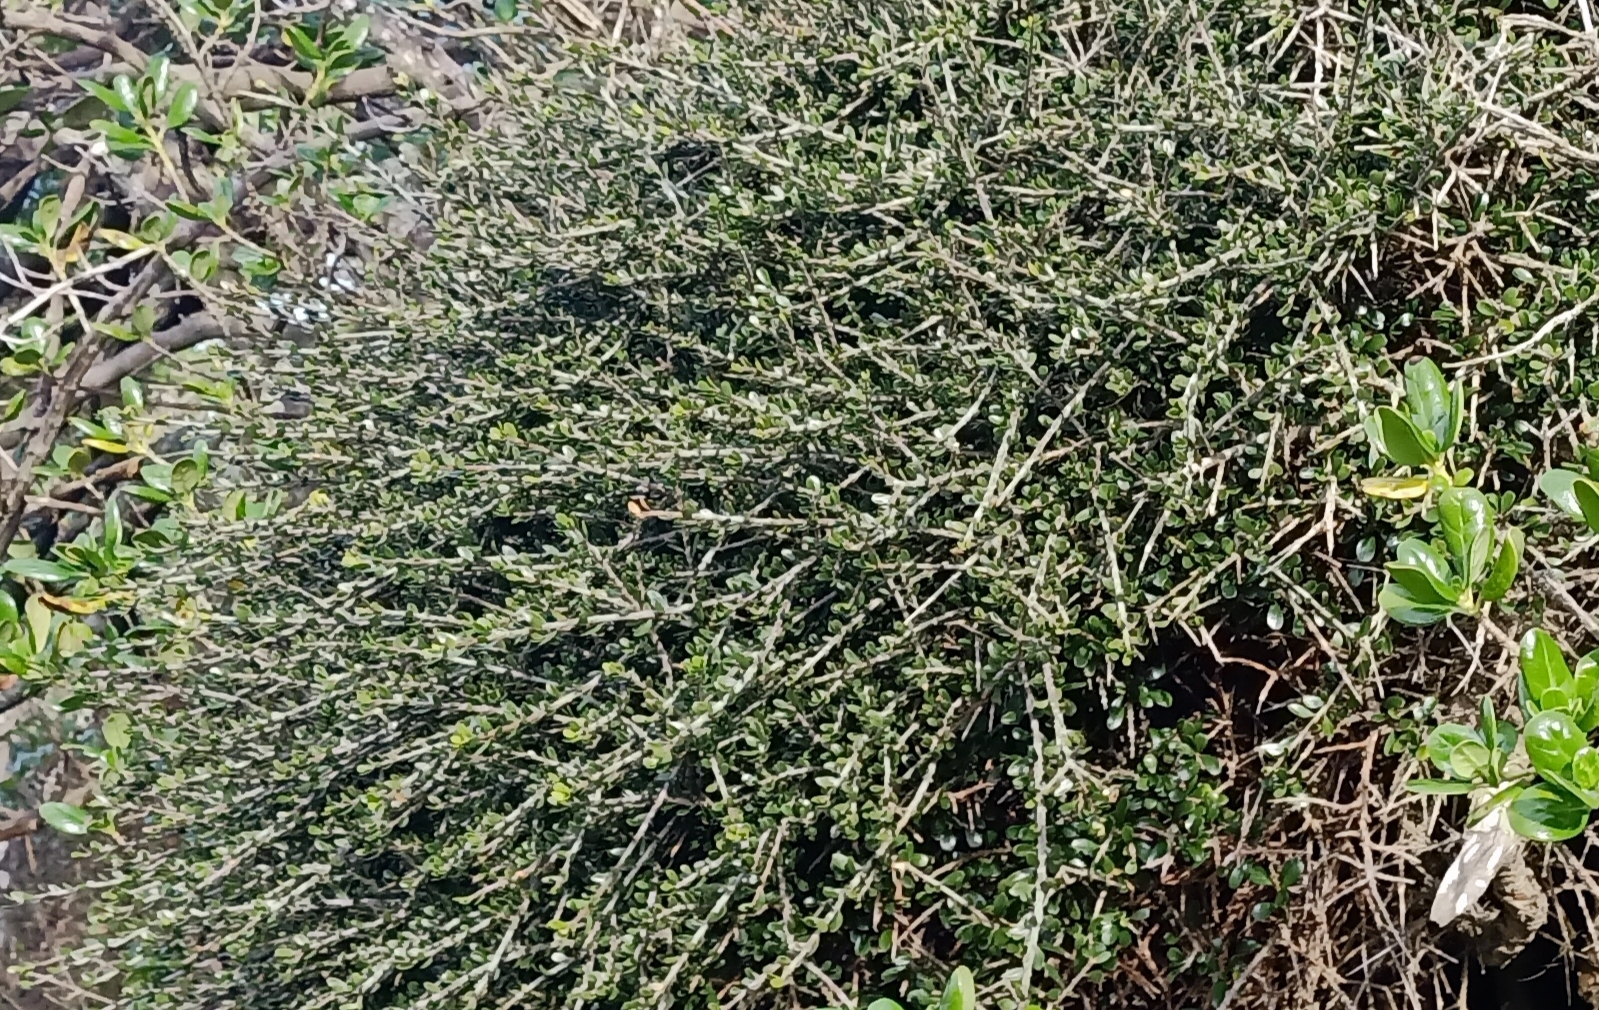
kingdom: Plantae
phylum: Tracheophyta
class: Magnoliopsida
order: Malpighiales
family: Violaceae
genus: Melicytus
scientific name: Melicytus crassifolius
